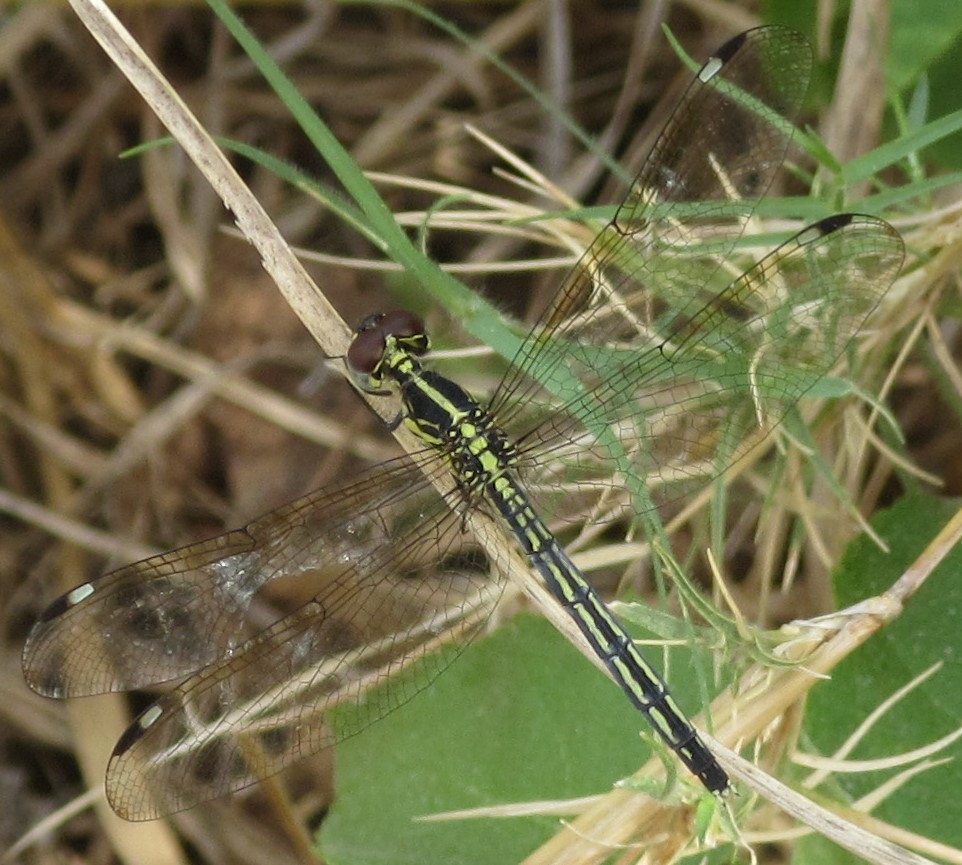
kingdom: Animalia
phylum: Arthropoda
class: Insecta
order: Odonata
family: Libellulidae
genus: Hemistigma
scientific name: Hemistigma albipunctum
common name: African pied-spot
